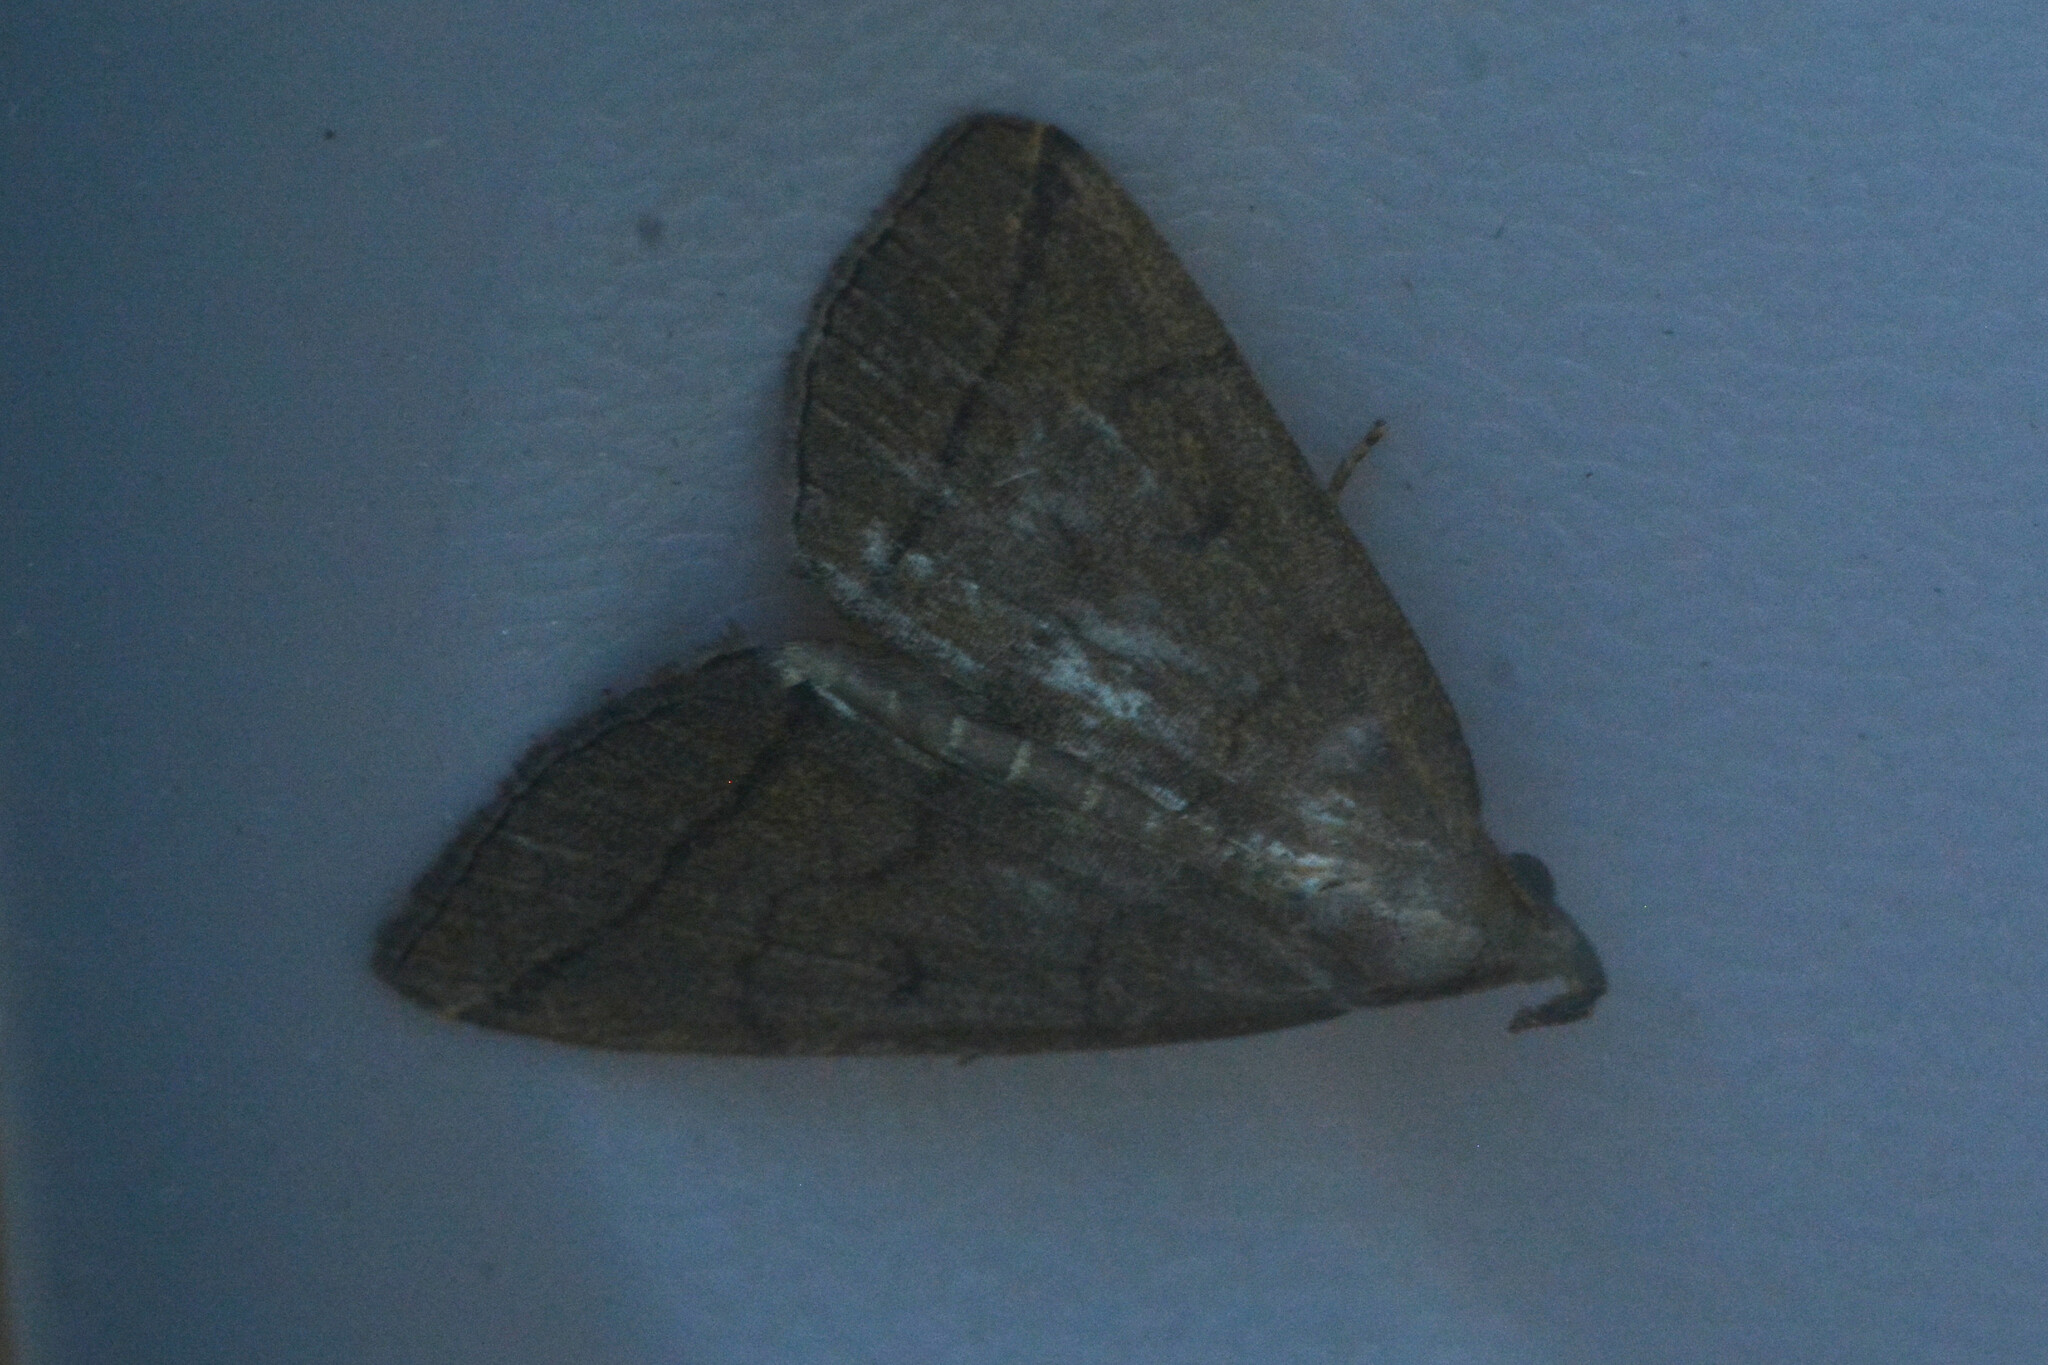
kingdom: Animalia
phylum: Arthropoda
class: Insecta
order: Lepidoptera
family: Erebidae
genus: Herminia
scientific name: Herminia tarsipennalis
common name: Fan-foot
